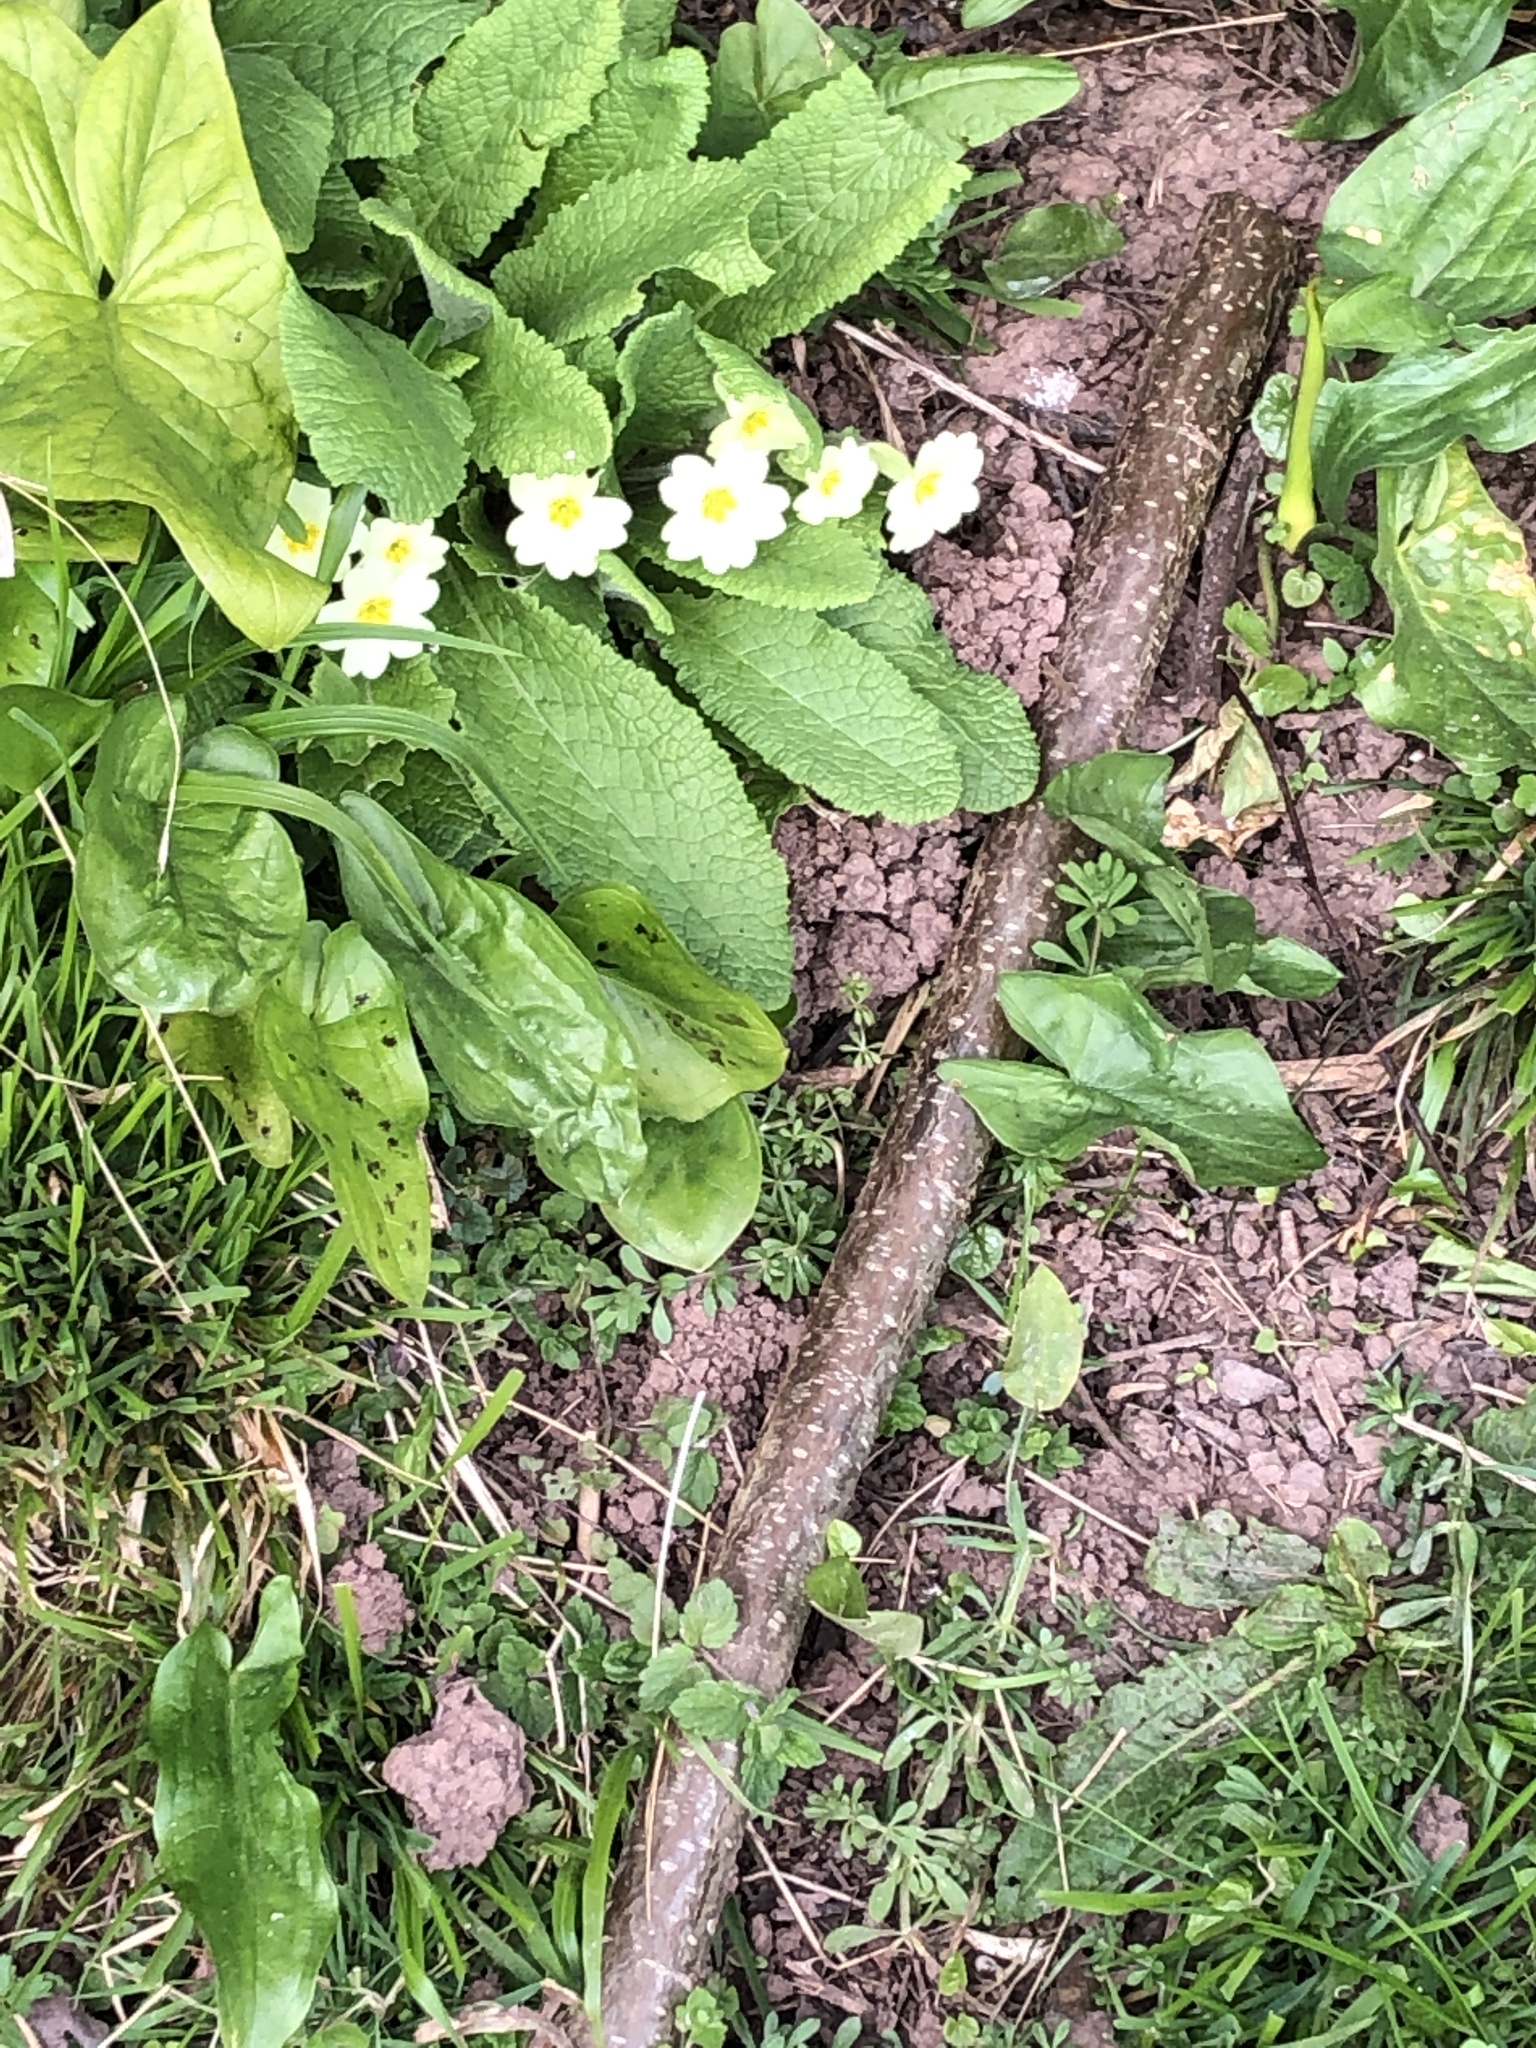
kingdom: Plantae
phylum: Tracheophyta
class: Magnoliopsida
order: Ericales
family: Primulaceae
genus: Primula
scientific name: Primula vulgaris
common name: Primrose
